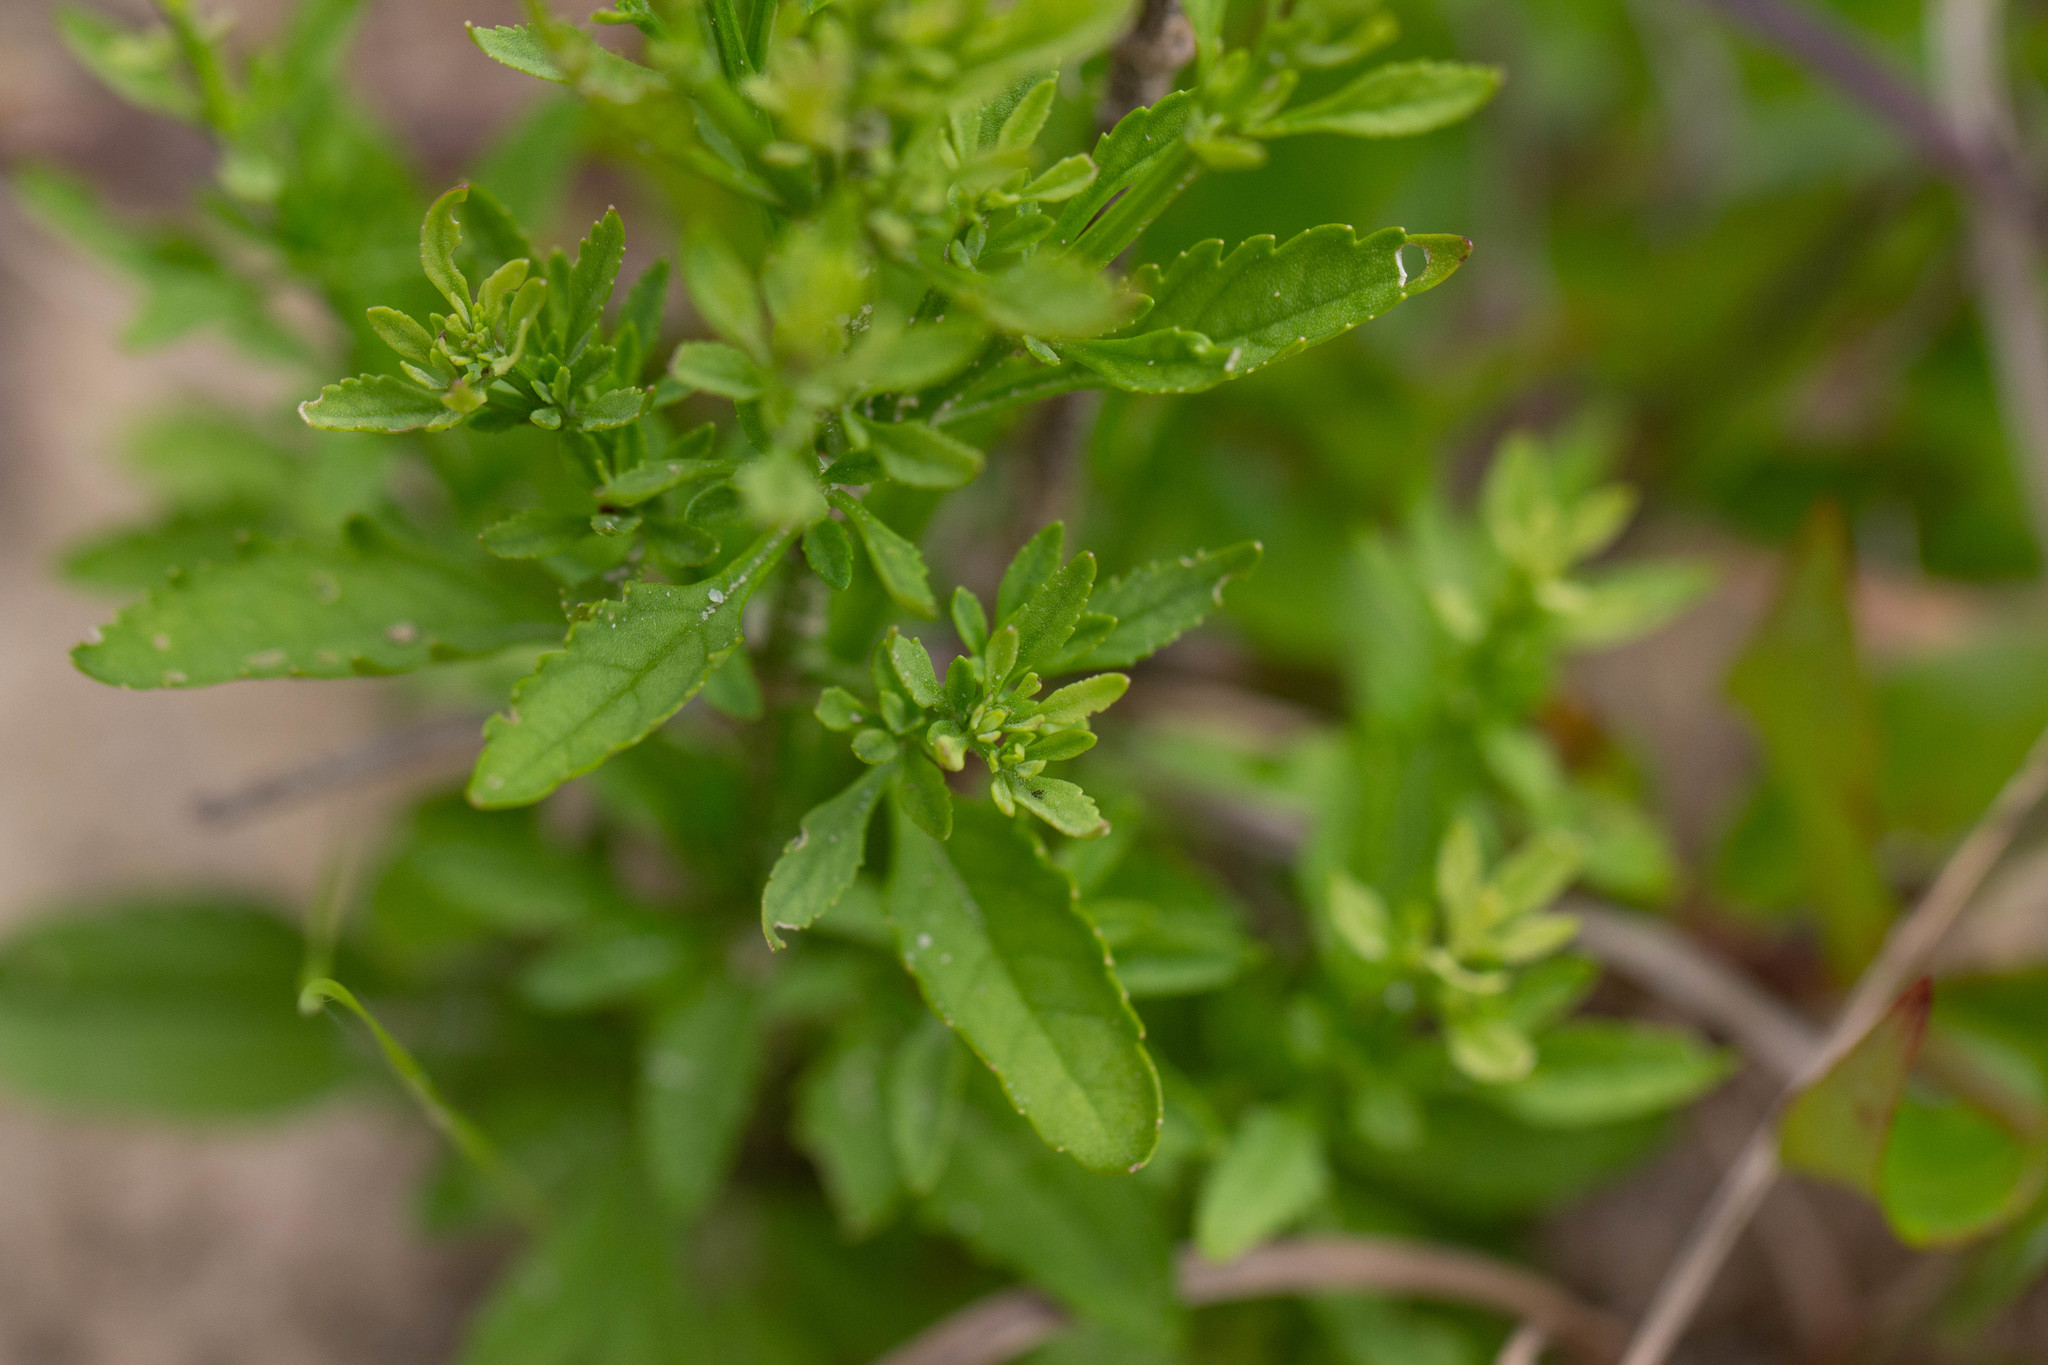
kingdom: Plantae
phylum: Tracheophyta
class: Magnoliopsida
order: Lamiales
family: Plantaginaceae
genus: Scoparia
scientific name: Scoparia dulcis
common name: Scoparia-weed
